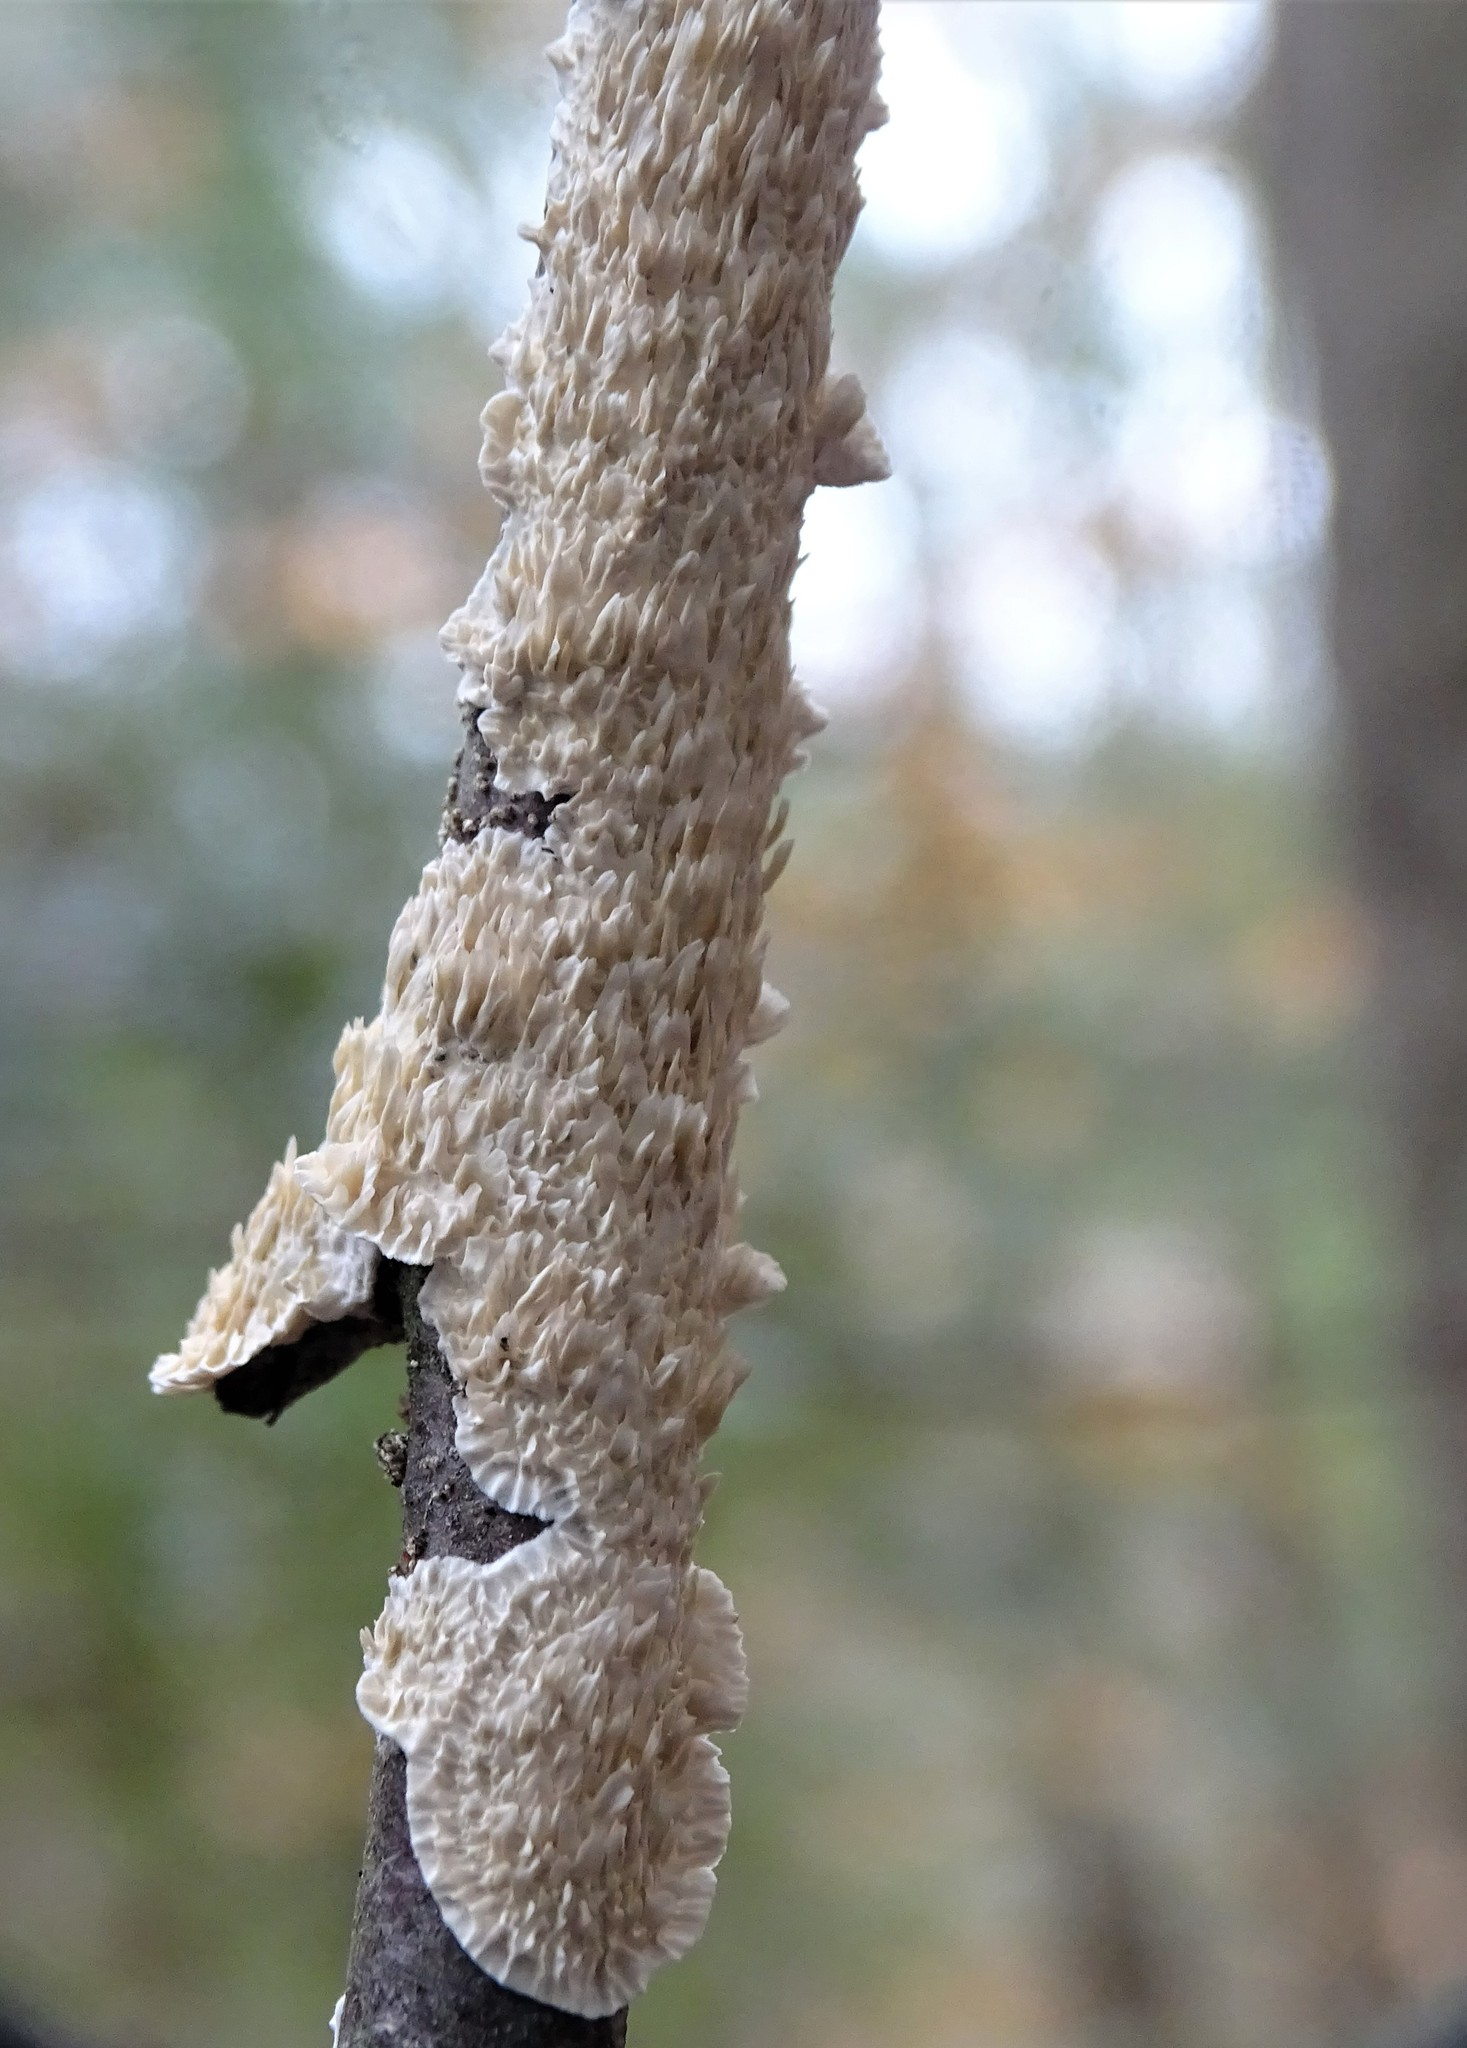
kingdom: Fungi
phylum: Basidiomycota
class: Agaricomycetes
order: Polyporales
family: Irpicaceae
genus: Irpex
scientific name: Irpex lacteus
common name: Milk-white toothed polypore
